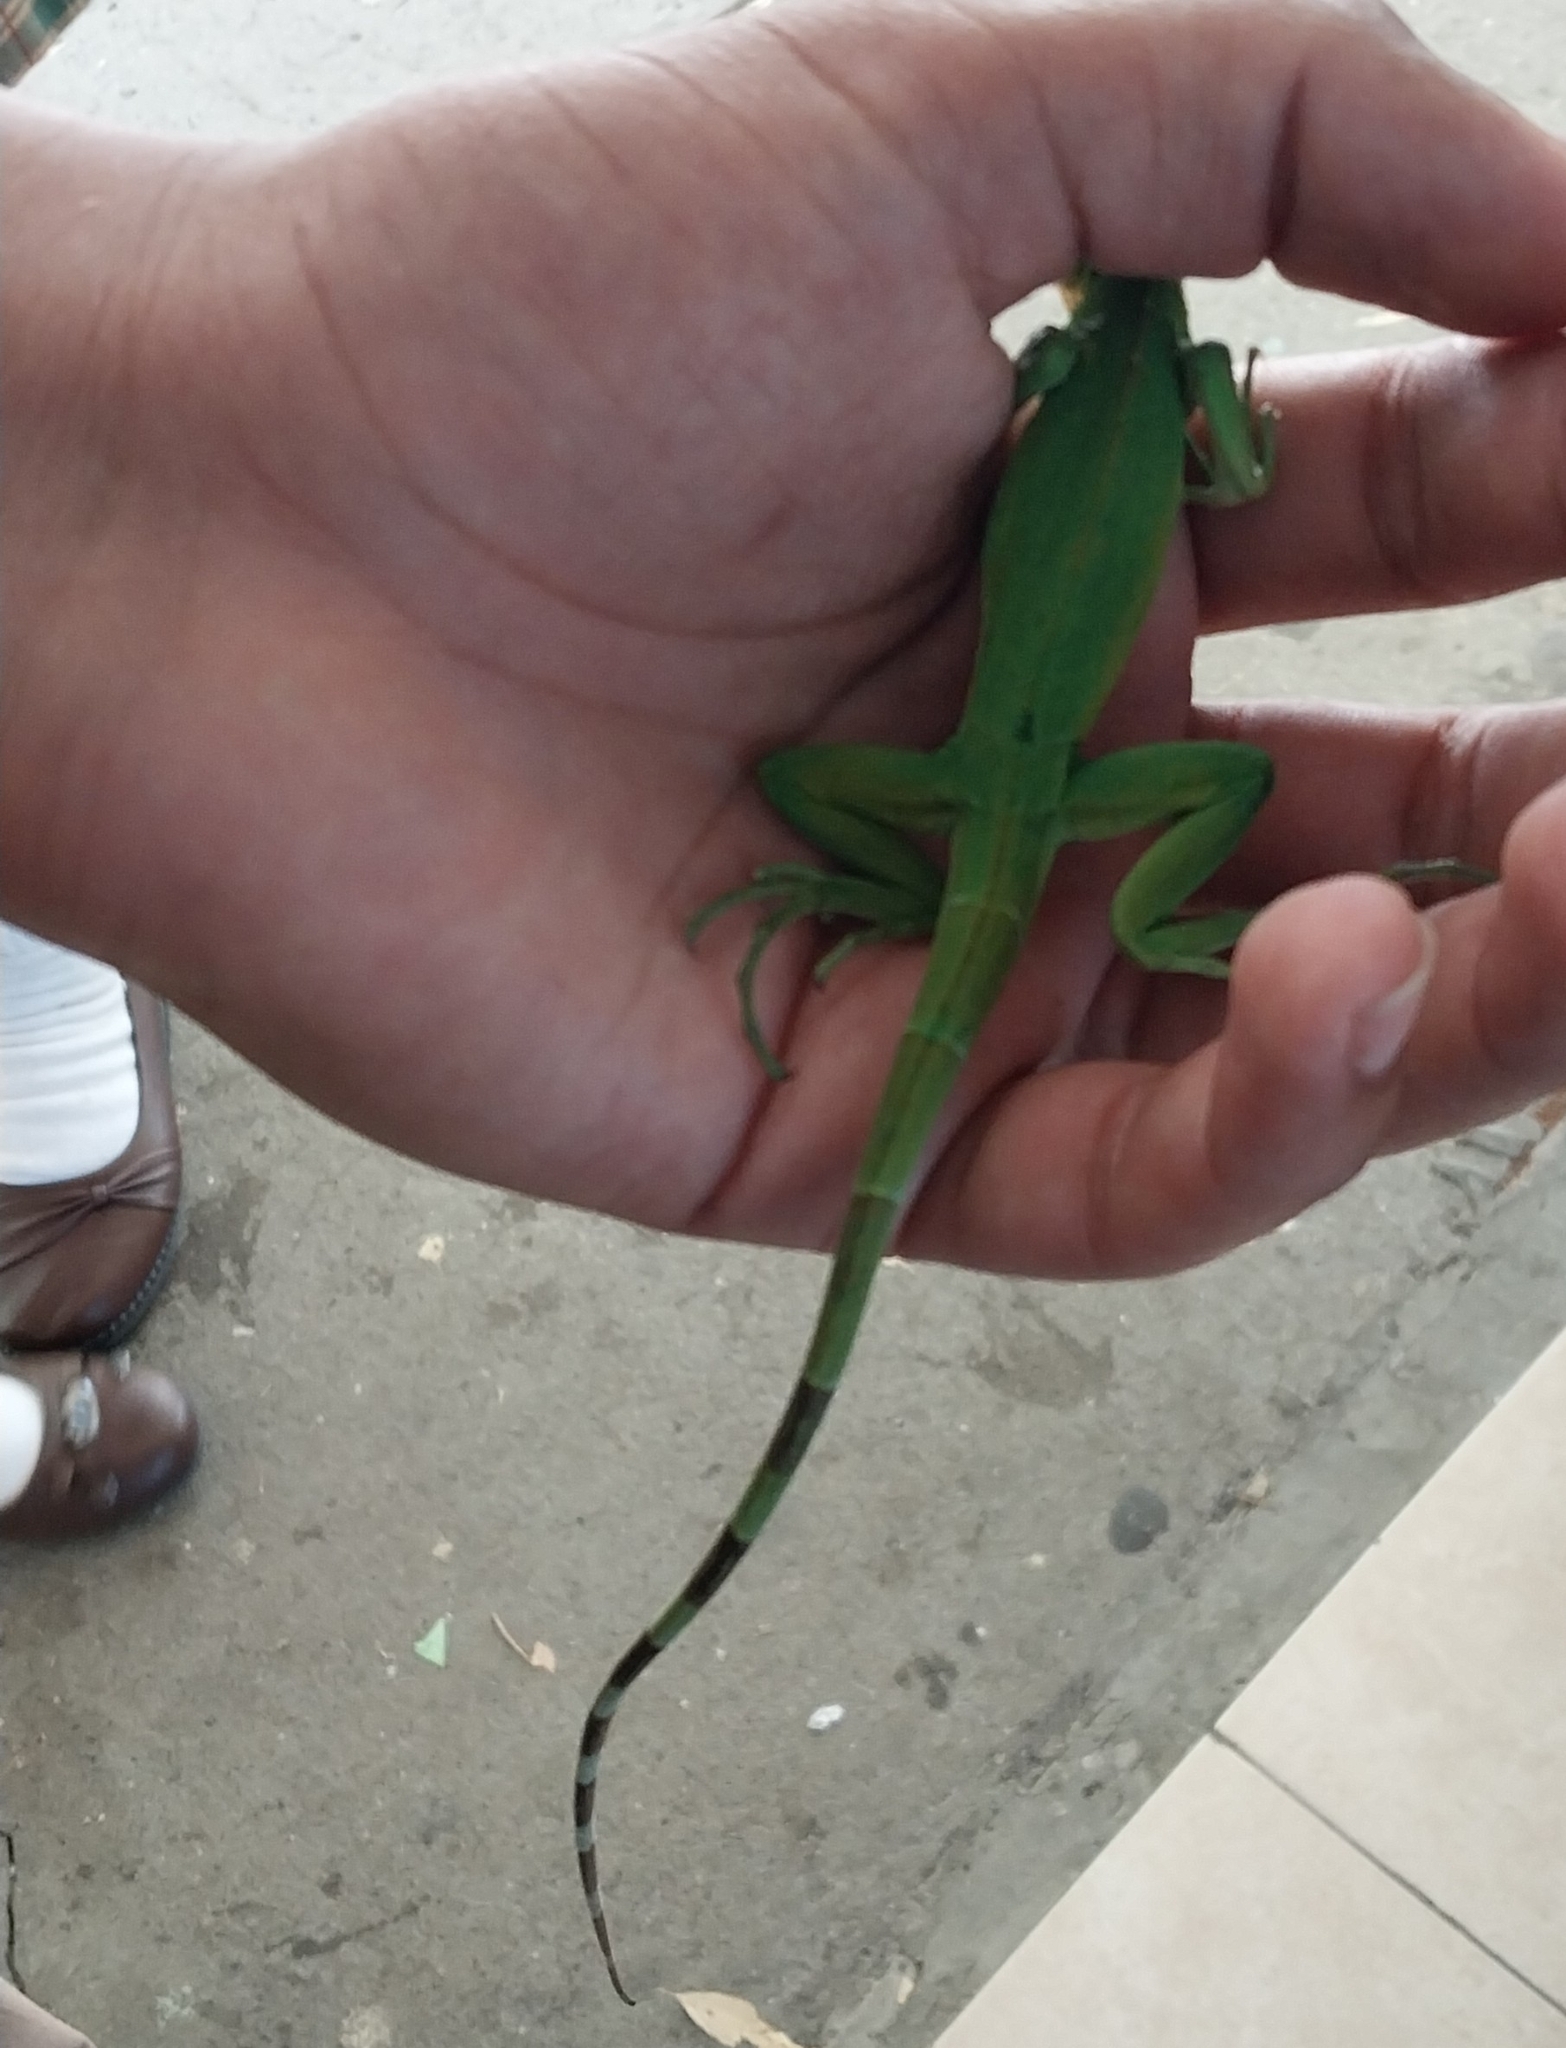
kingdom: Animalia
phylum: Chordata
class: Squamata
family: Iguanidae
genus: Iguana
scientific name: Iguana iguana
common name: Green iguana
